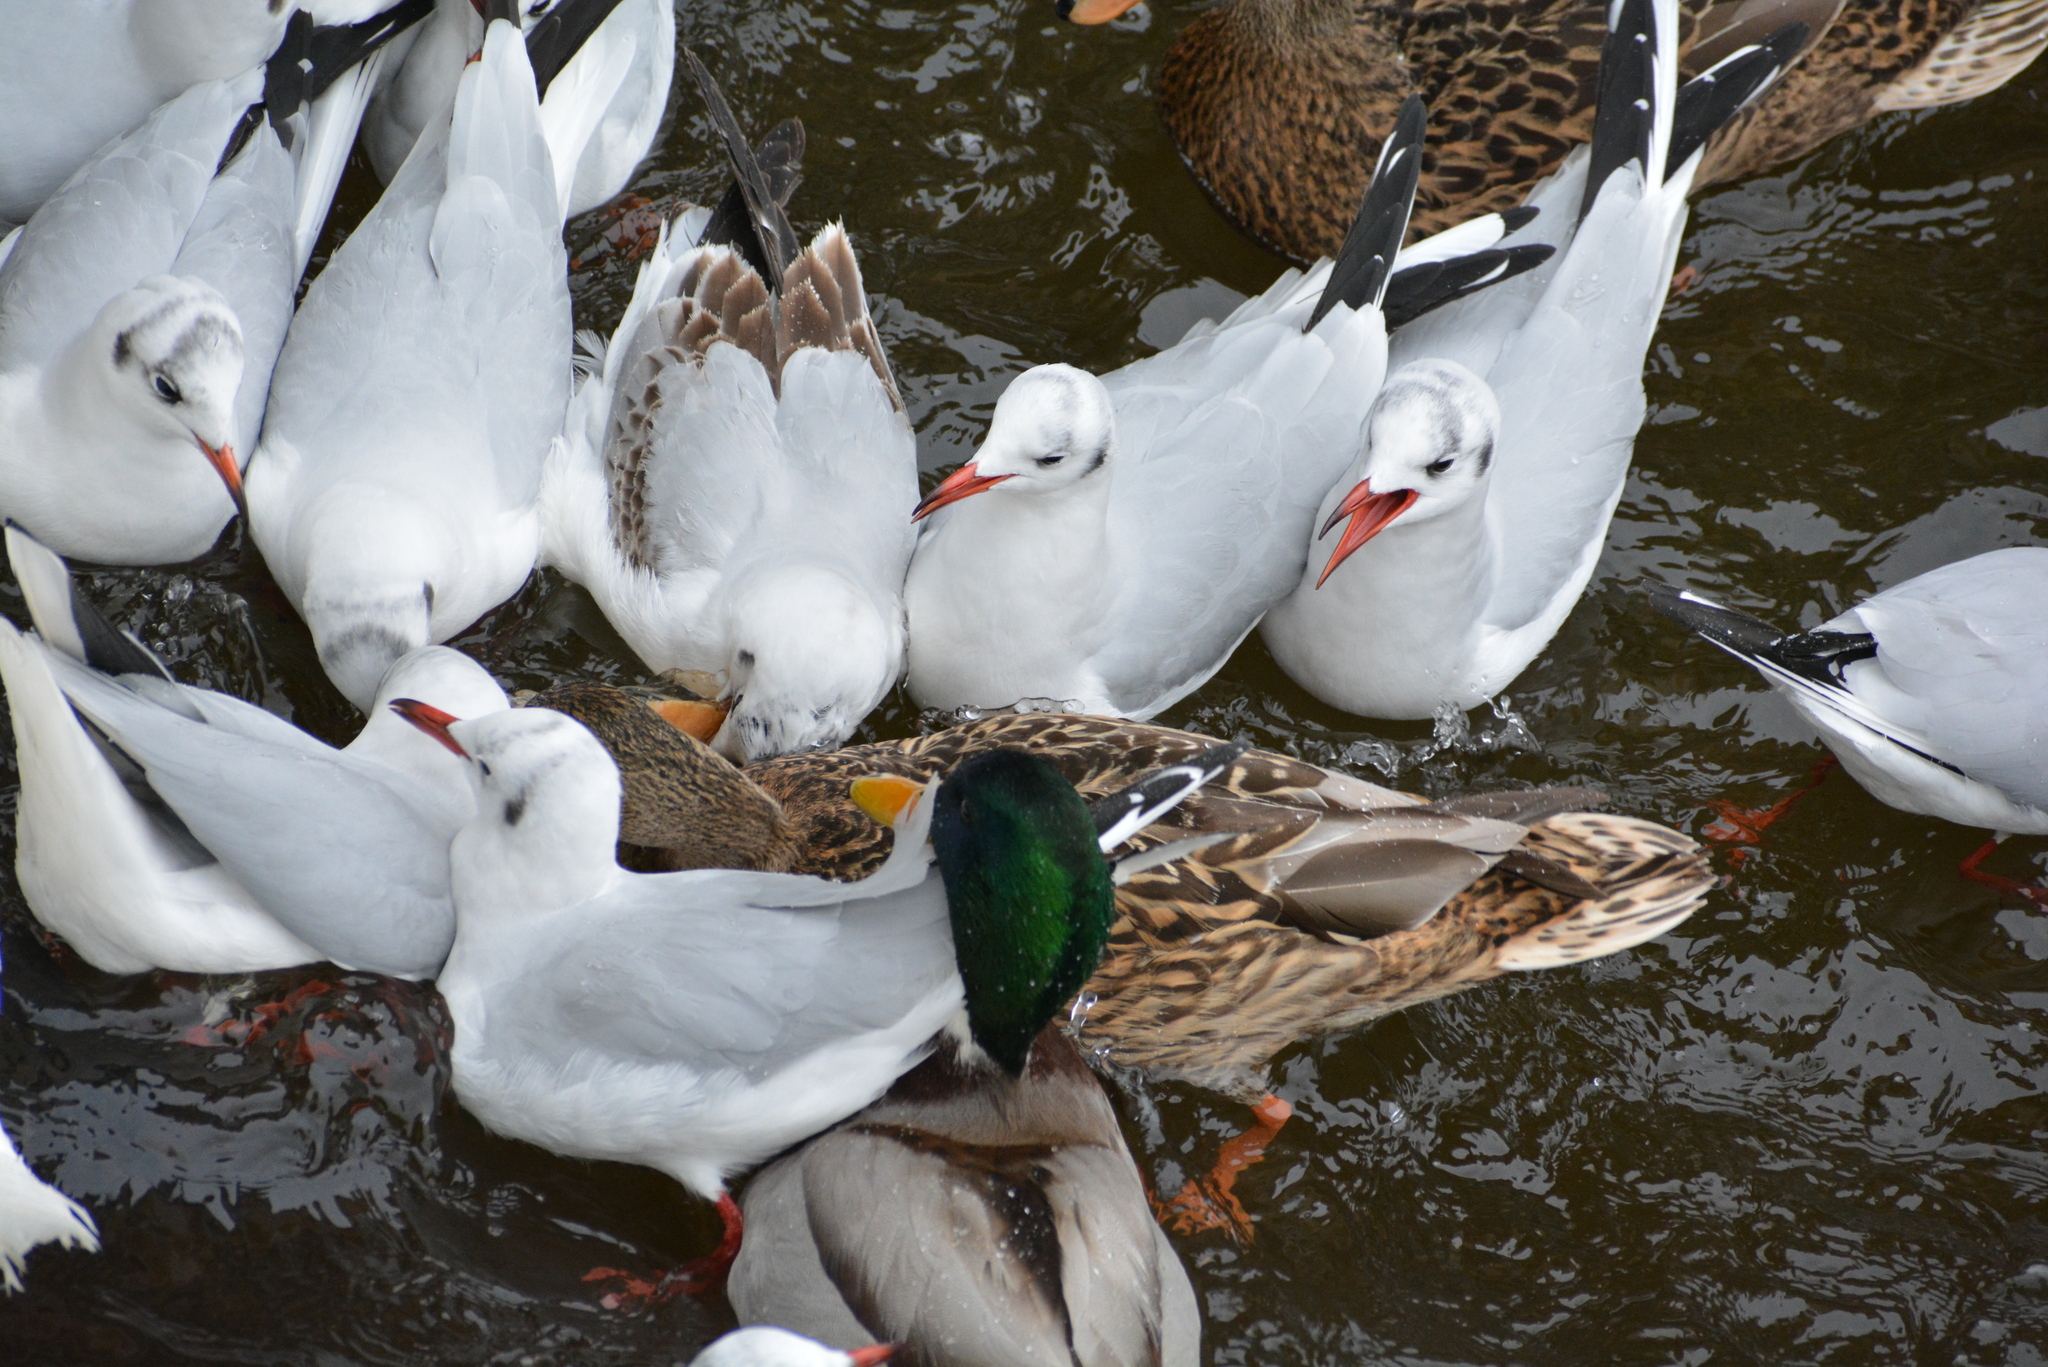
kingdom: Animalia
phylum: Chordata
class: Aves
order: Charadriiformes
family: Laridae
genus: Chroicocephalus
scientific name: Chroicocephalus ridibundus
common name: Black-headed gull
